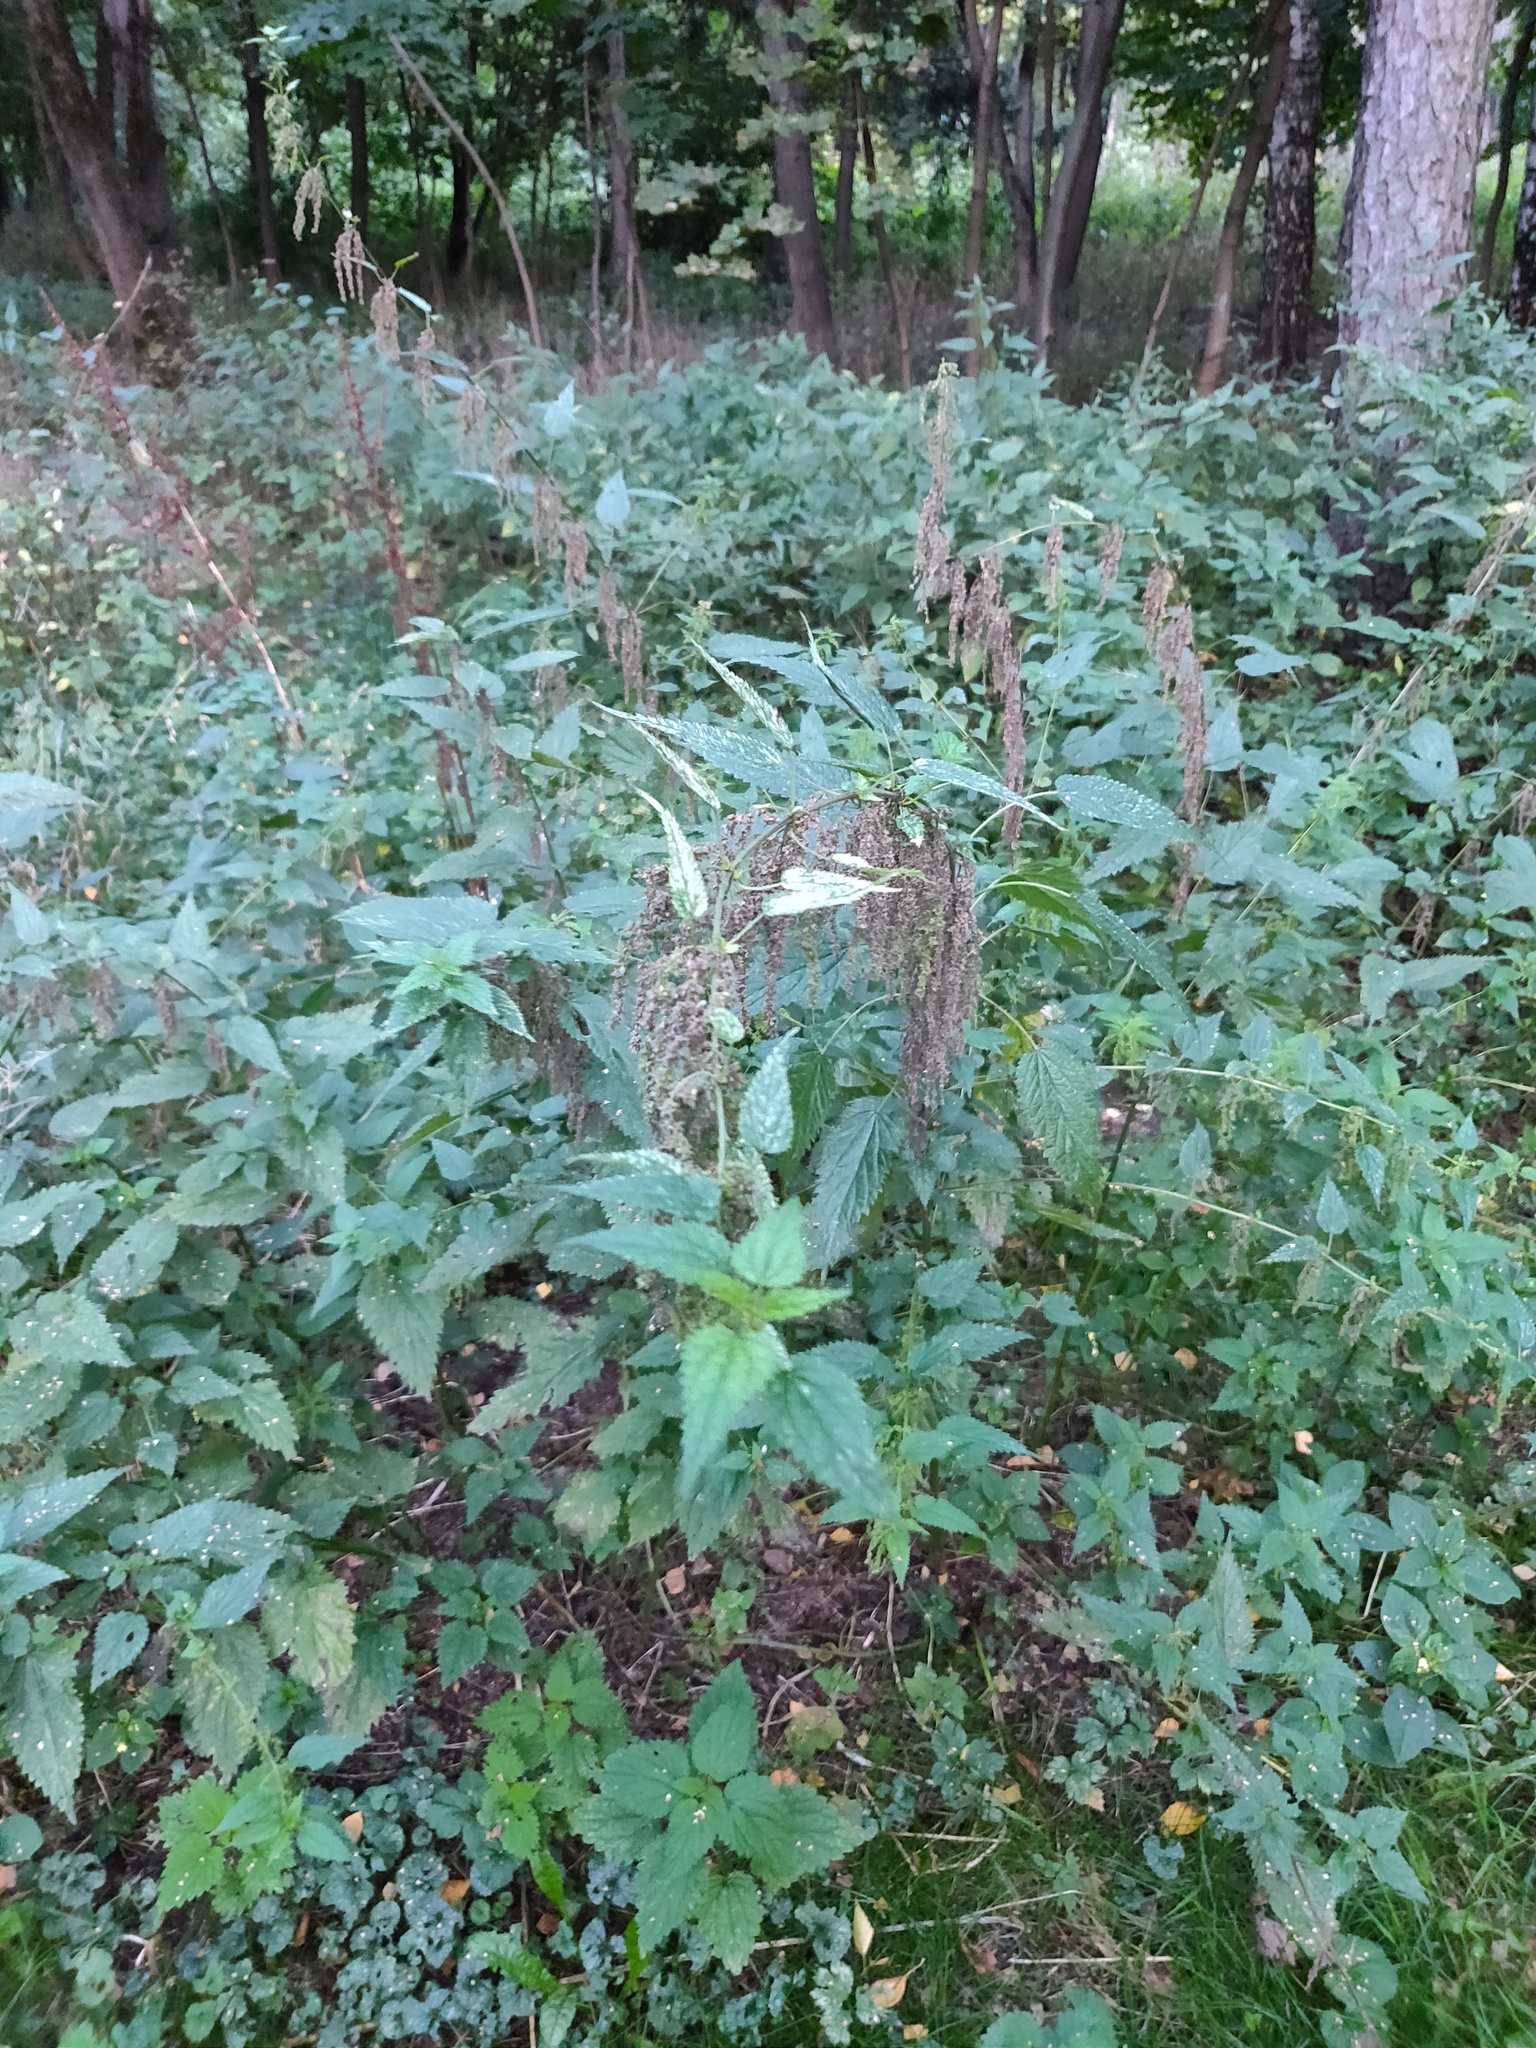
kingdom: Plantae
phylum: Tracheophyta
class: Magnoliopsida
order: Rosales
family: Urticaceae
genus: Urtica
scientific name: Urtica dioica
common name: Common nettle
